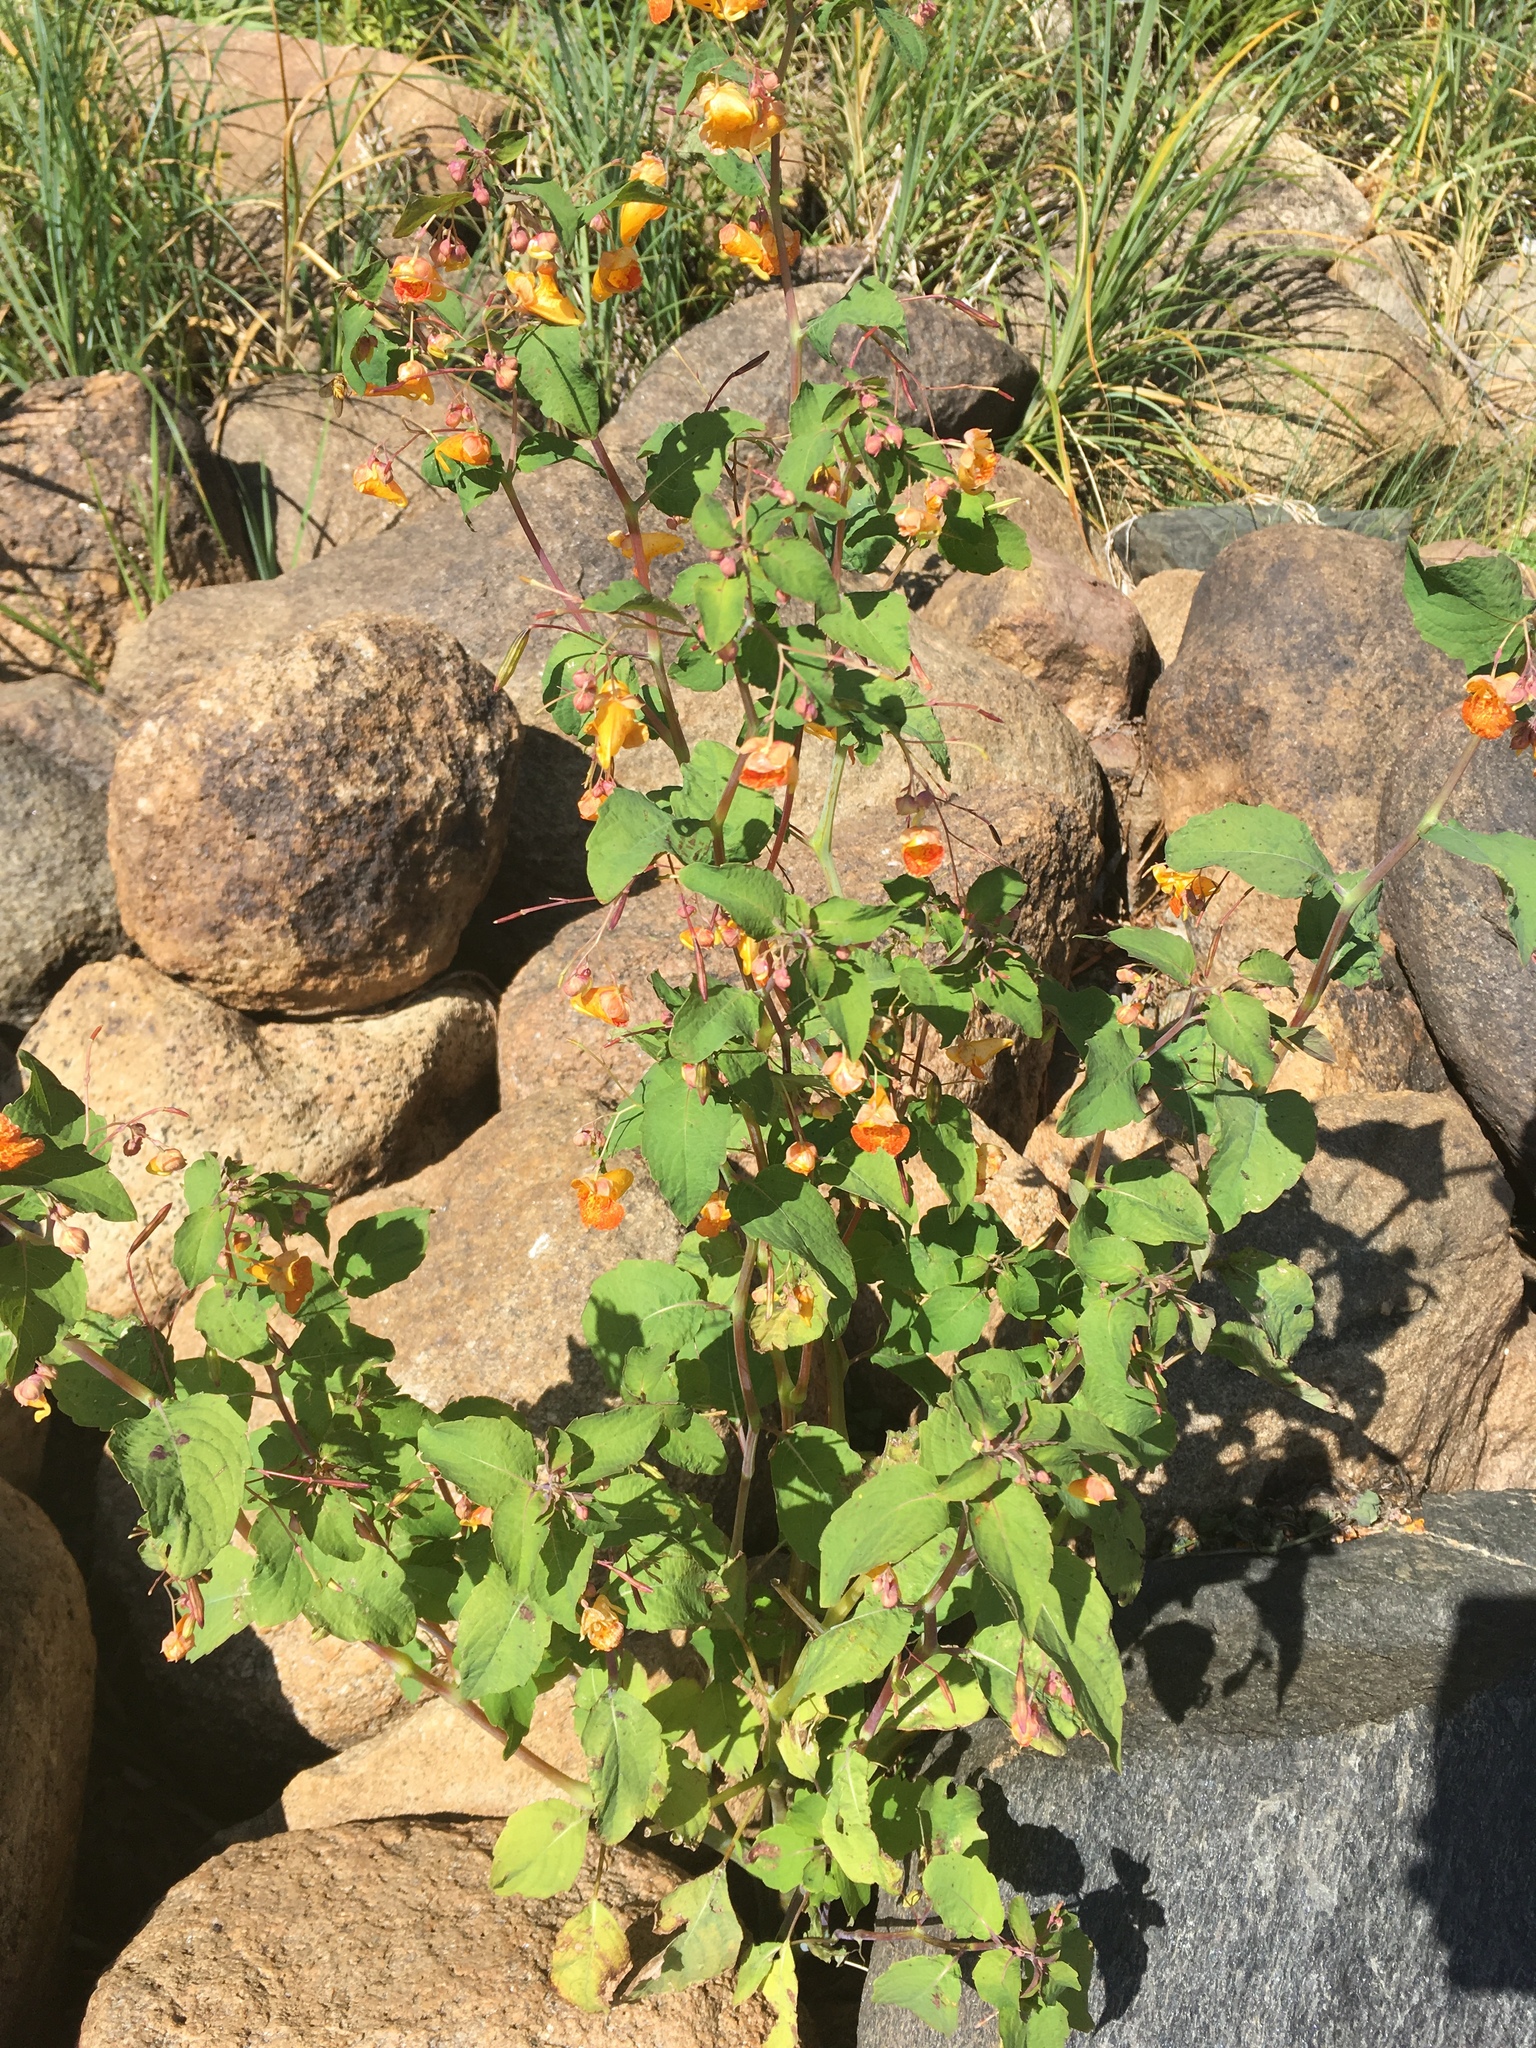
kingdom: Plantae
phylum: Tracheophyta
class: Magnoliopsida
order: Ericales
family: Balsaminaceae
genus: Impatiens
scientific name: Impatiens capensis
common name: Orange balsam
